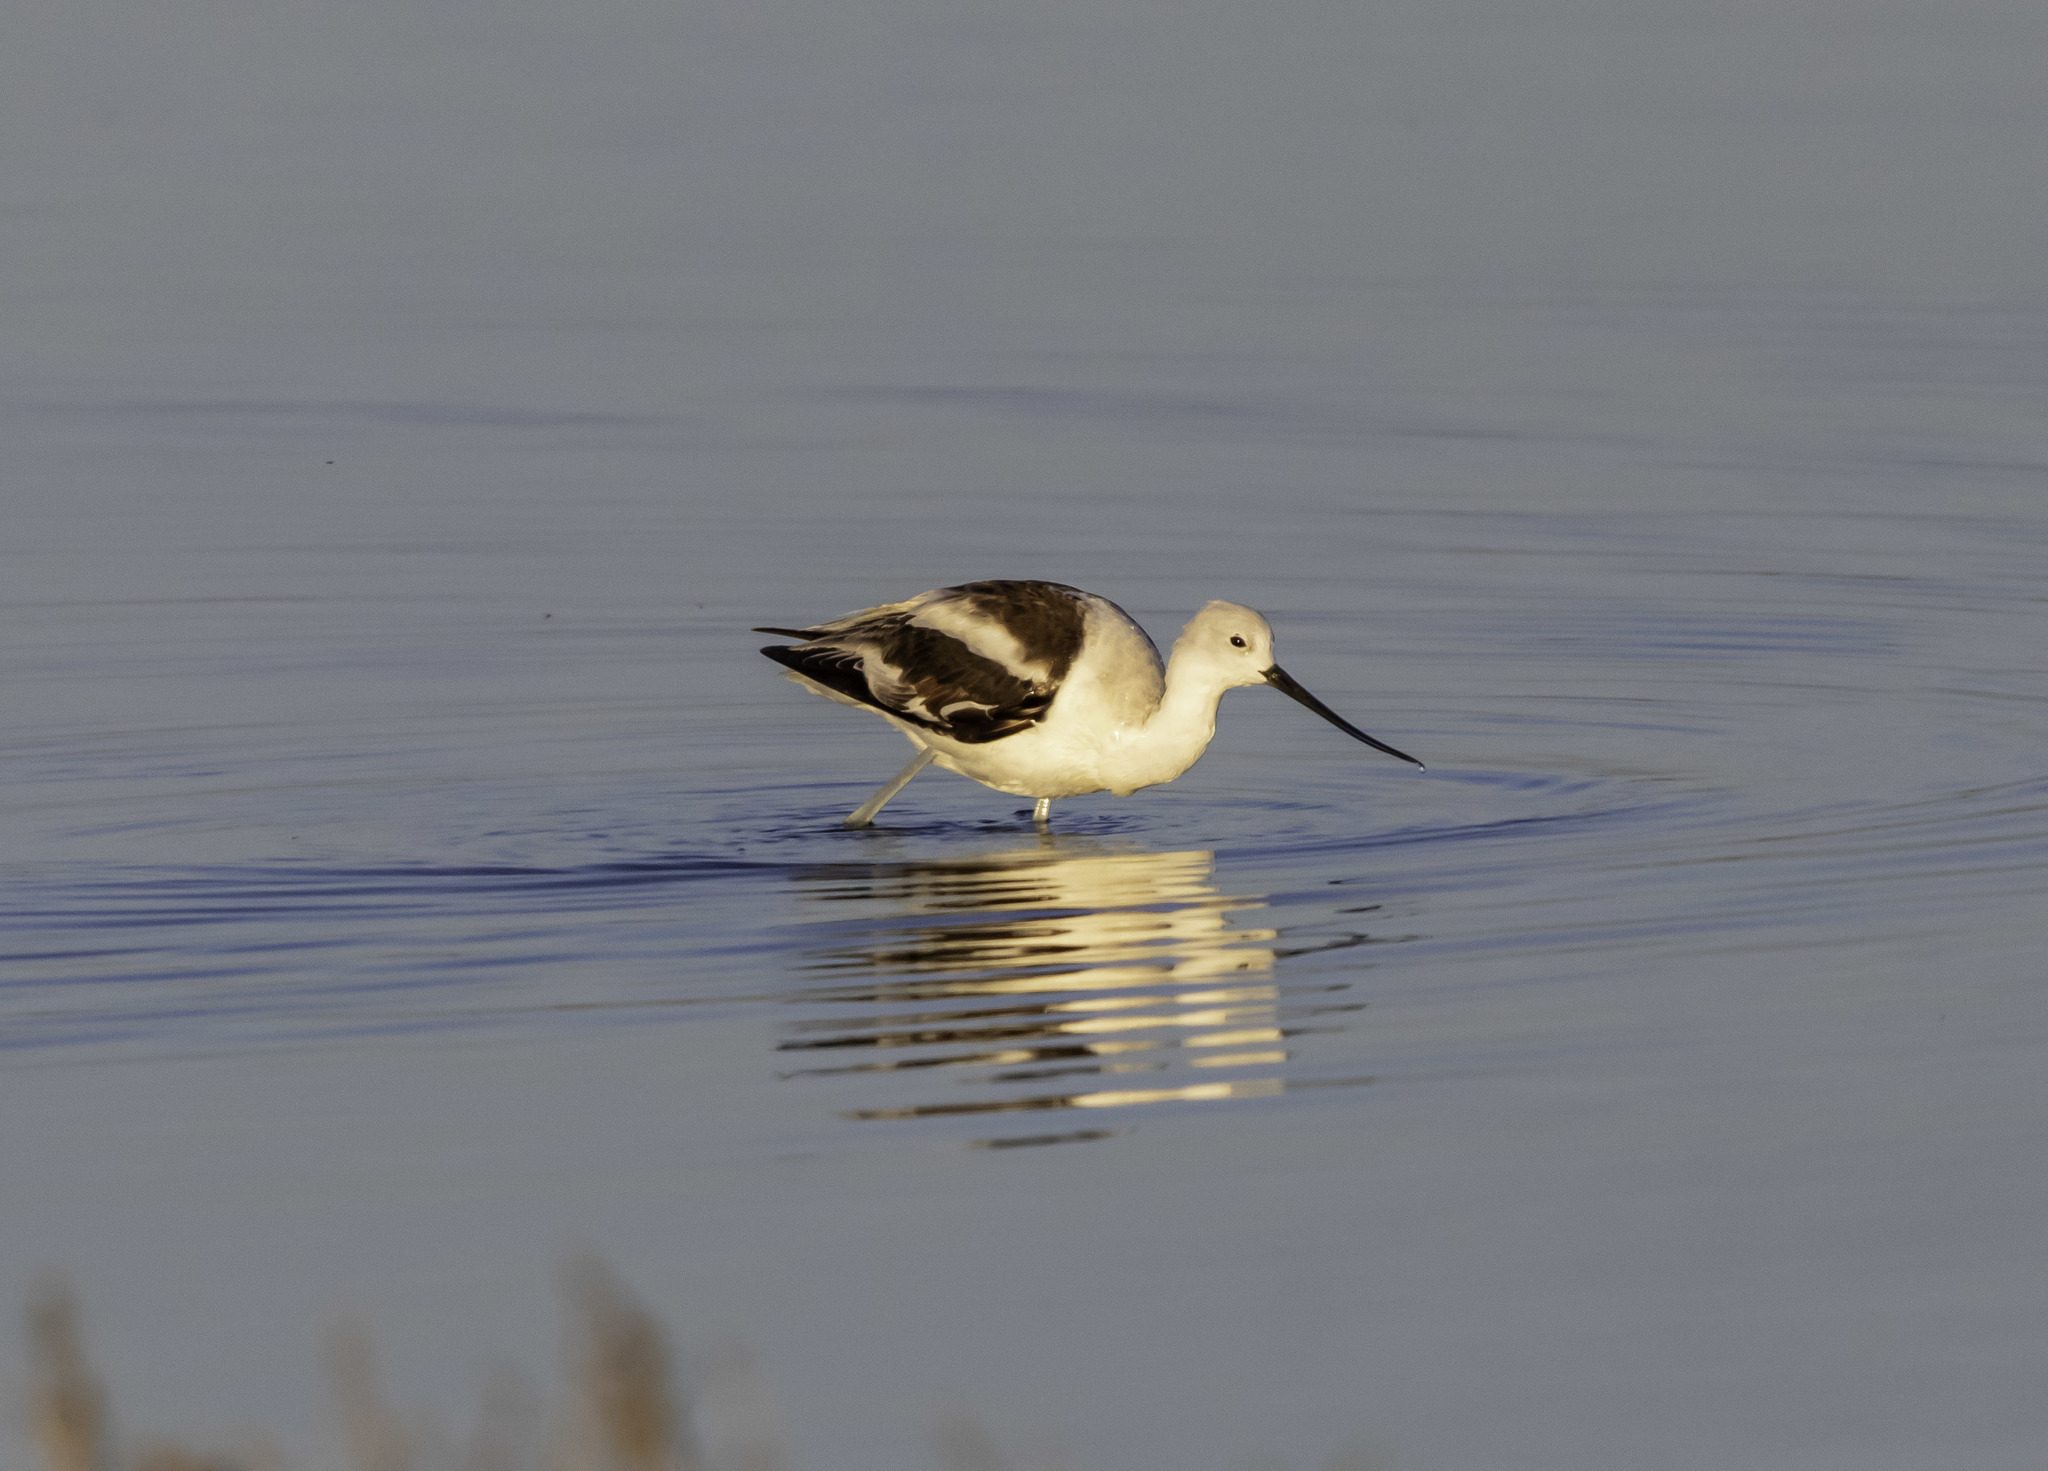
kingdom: Animalia
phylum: Chordata
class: Aves
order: Charadriiformes
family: Recurvirostridae
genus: Recurvirostra
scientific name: Recurvirostra americana
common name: American avocet
